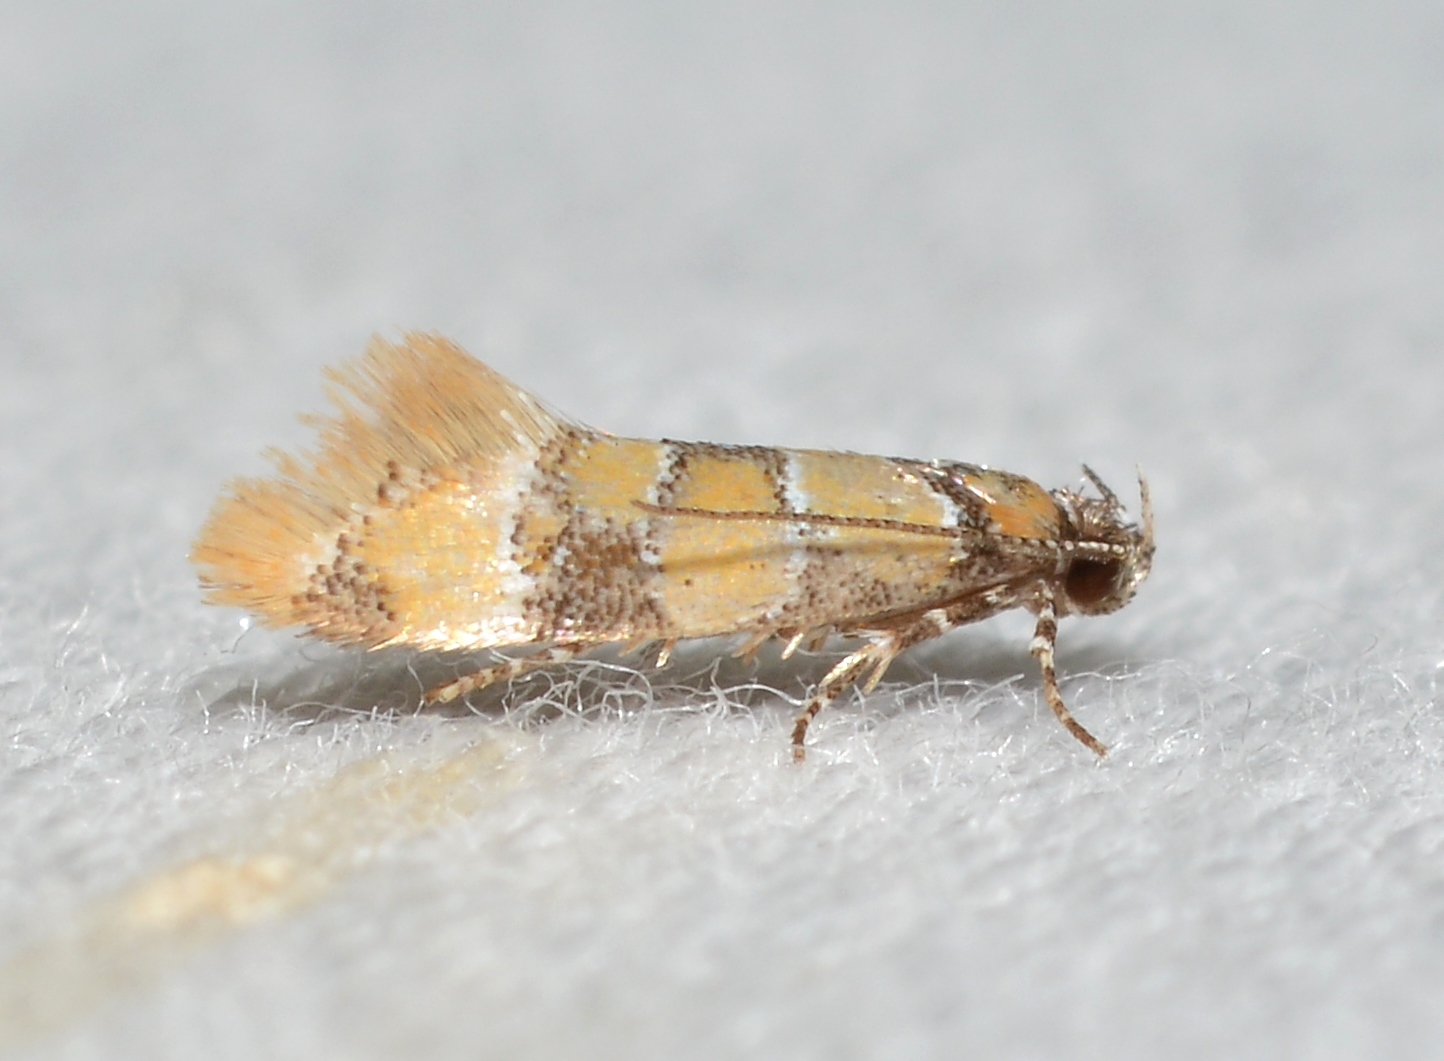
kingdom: Animalia
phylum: Arthropoda
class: Insecta
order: Lepidoptera
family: Oecophoridae
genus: Decantha
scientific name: Decantha borkhausenii
